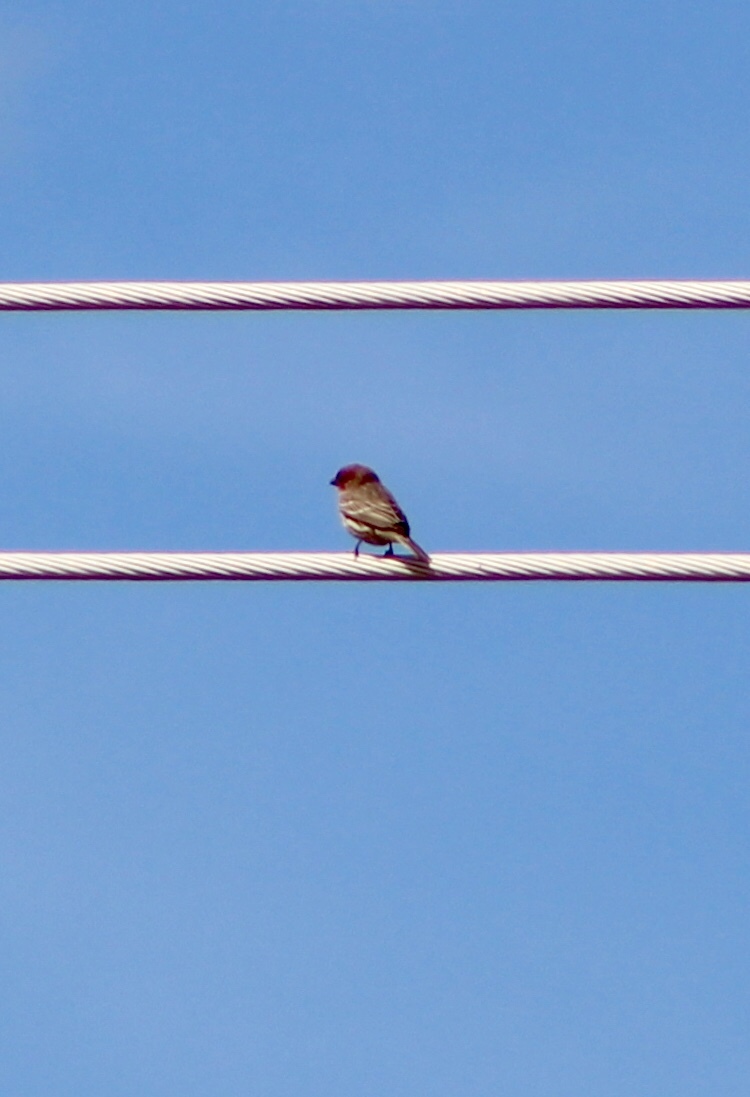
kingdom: Animalia
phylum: Chordata
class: Aves
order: Passeriformes
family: Fringillidae
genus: Haemorhous
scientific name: Haemorhous mexicanus
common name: House finch
